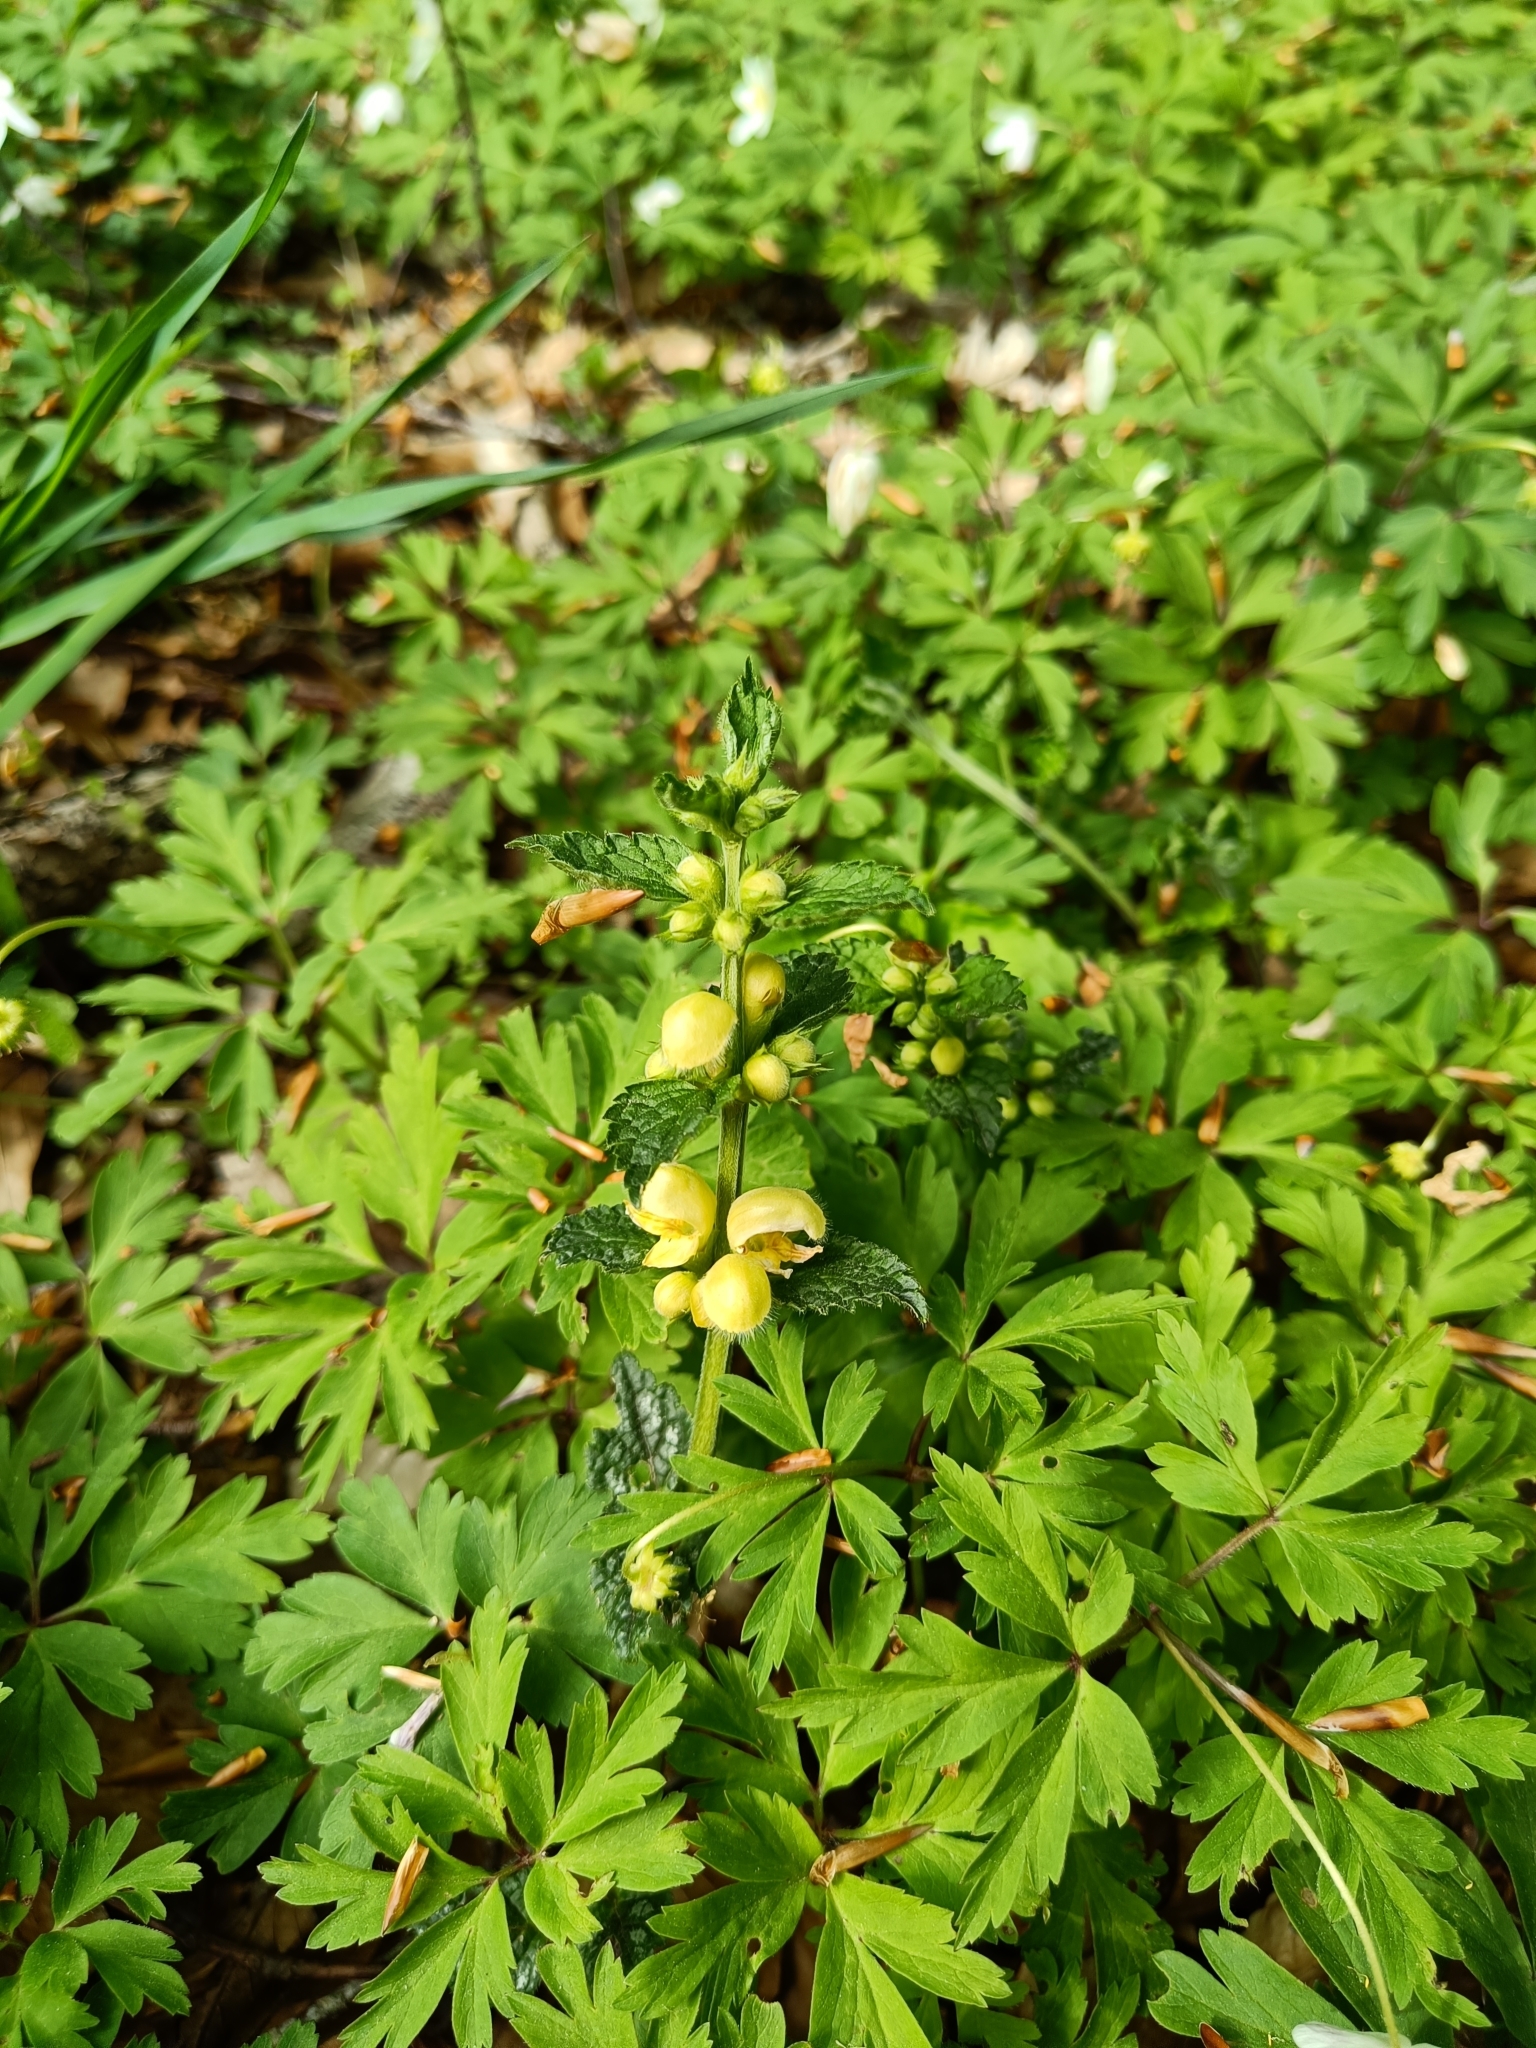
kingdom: Plantae
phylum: Tracheophyta
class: Magnoliopsida
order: Lamiales
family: Lamiaceae
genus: Lamium
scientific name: Lamium galeobdolon
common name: Yellow archangel
